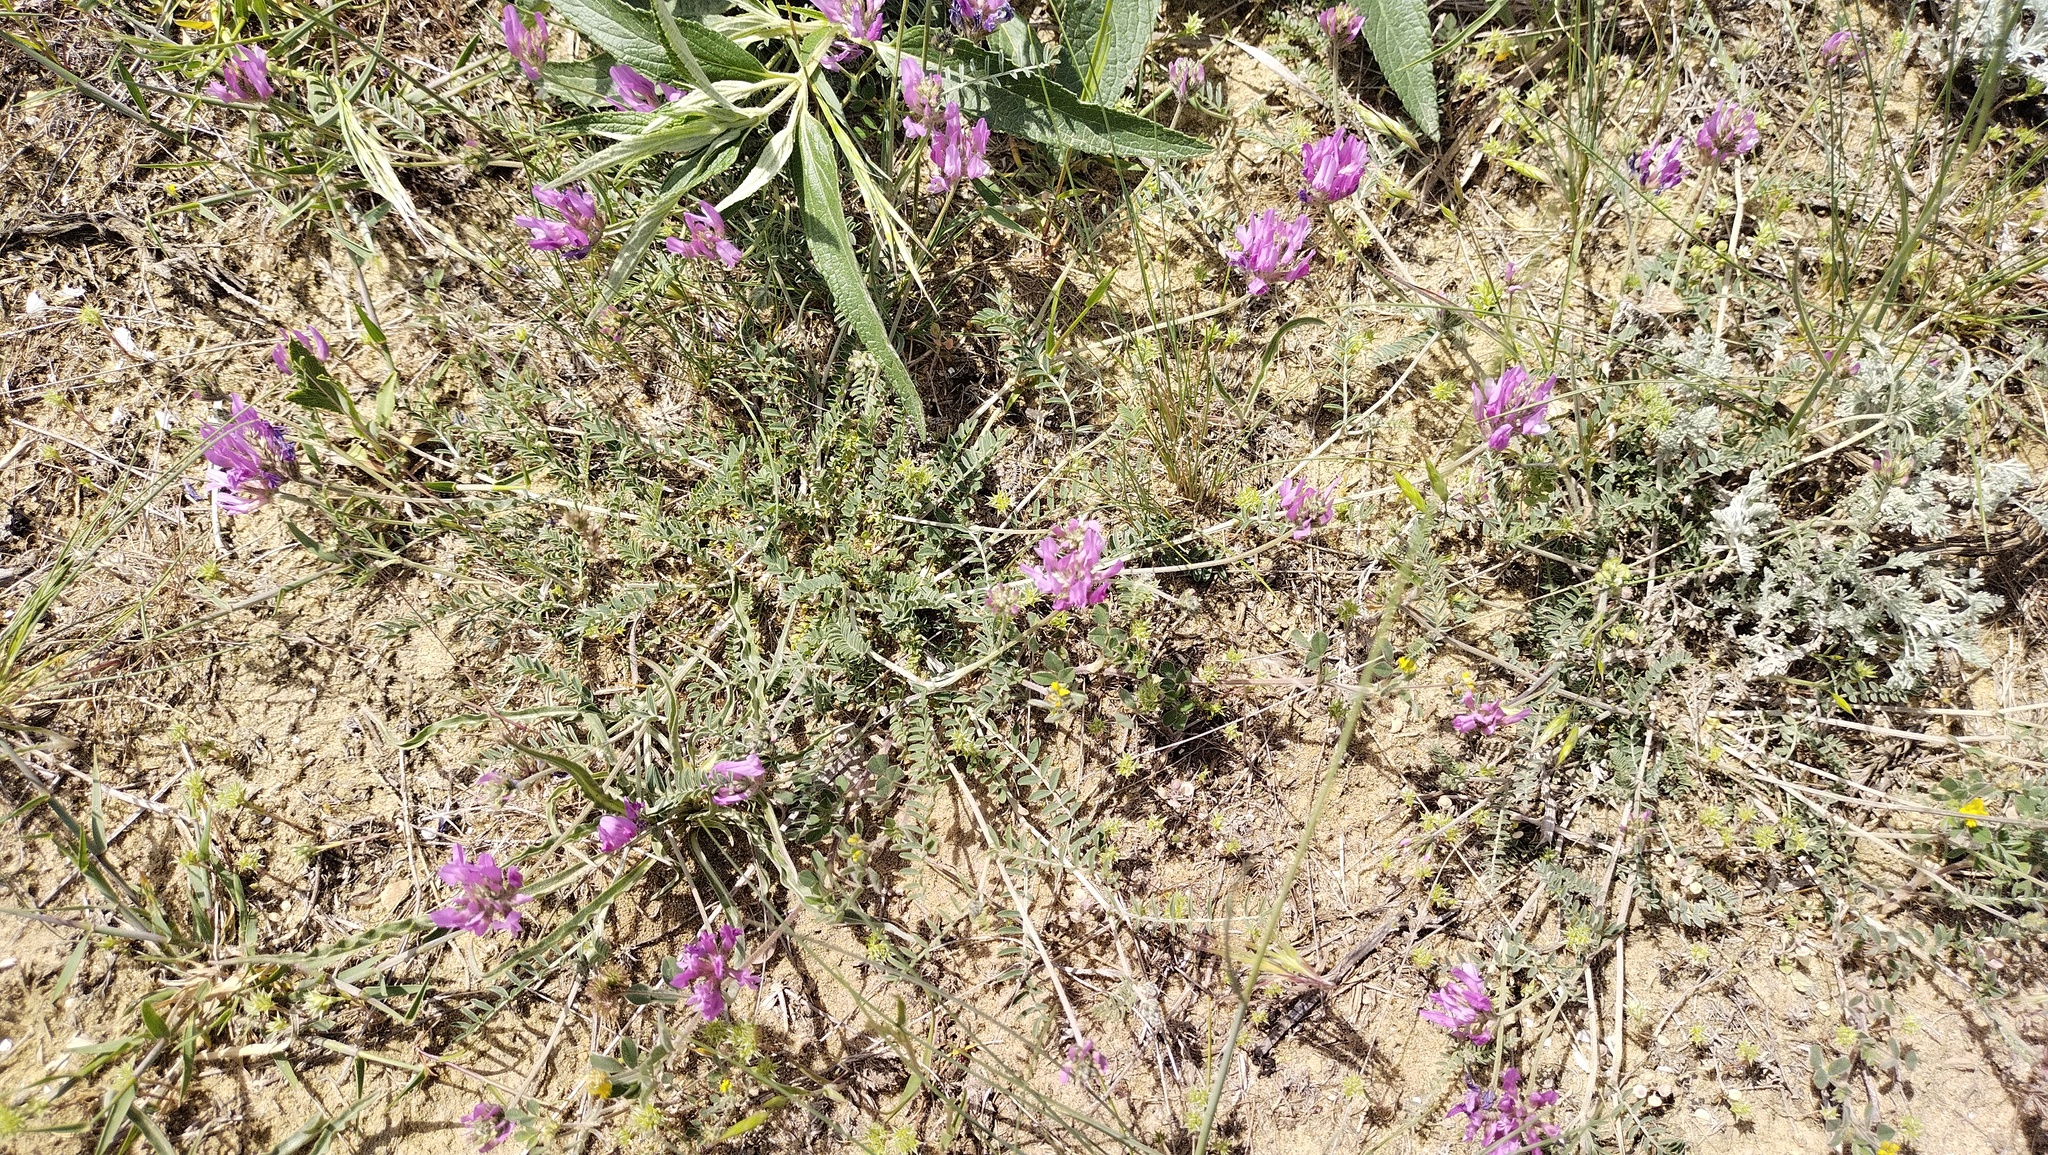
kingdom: Plantae
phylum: Tracheophyta
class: Magnoliopsida
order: Fabales
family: Fabaceae
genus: Astragalus
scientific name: Astragalus onobrychis
